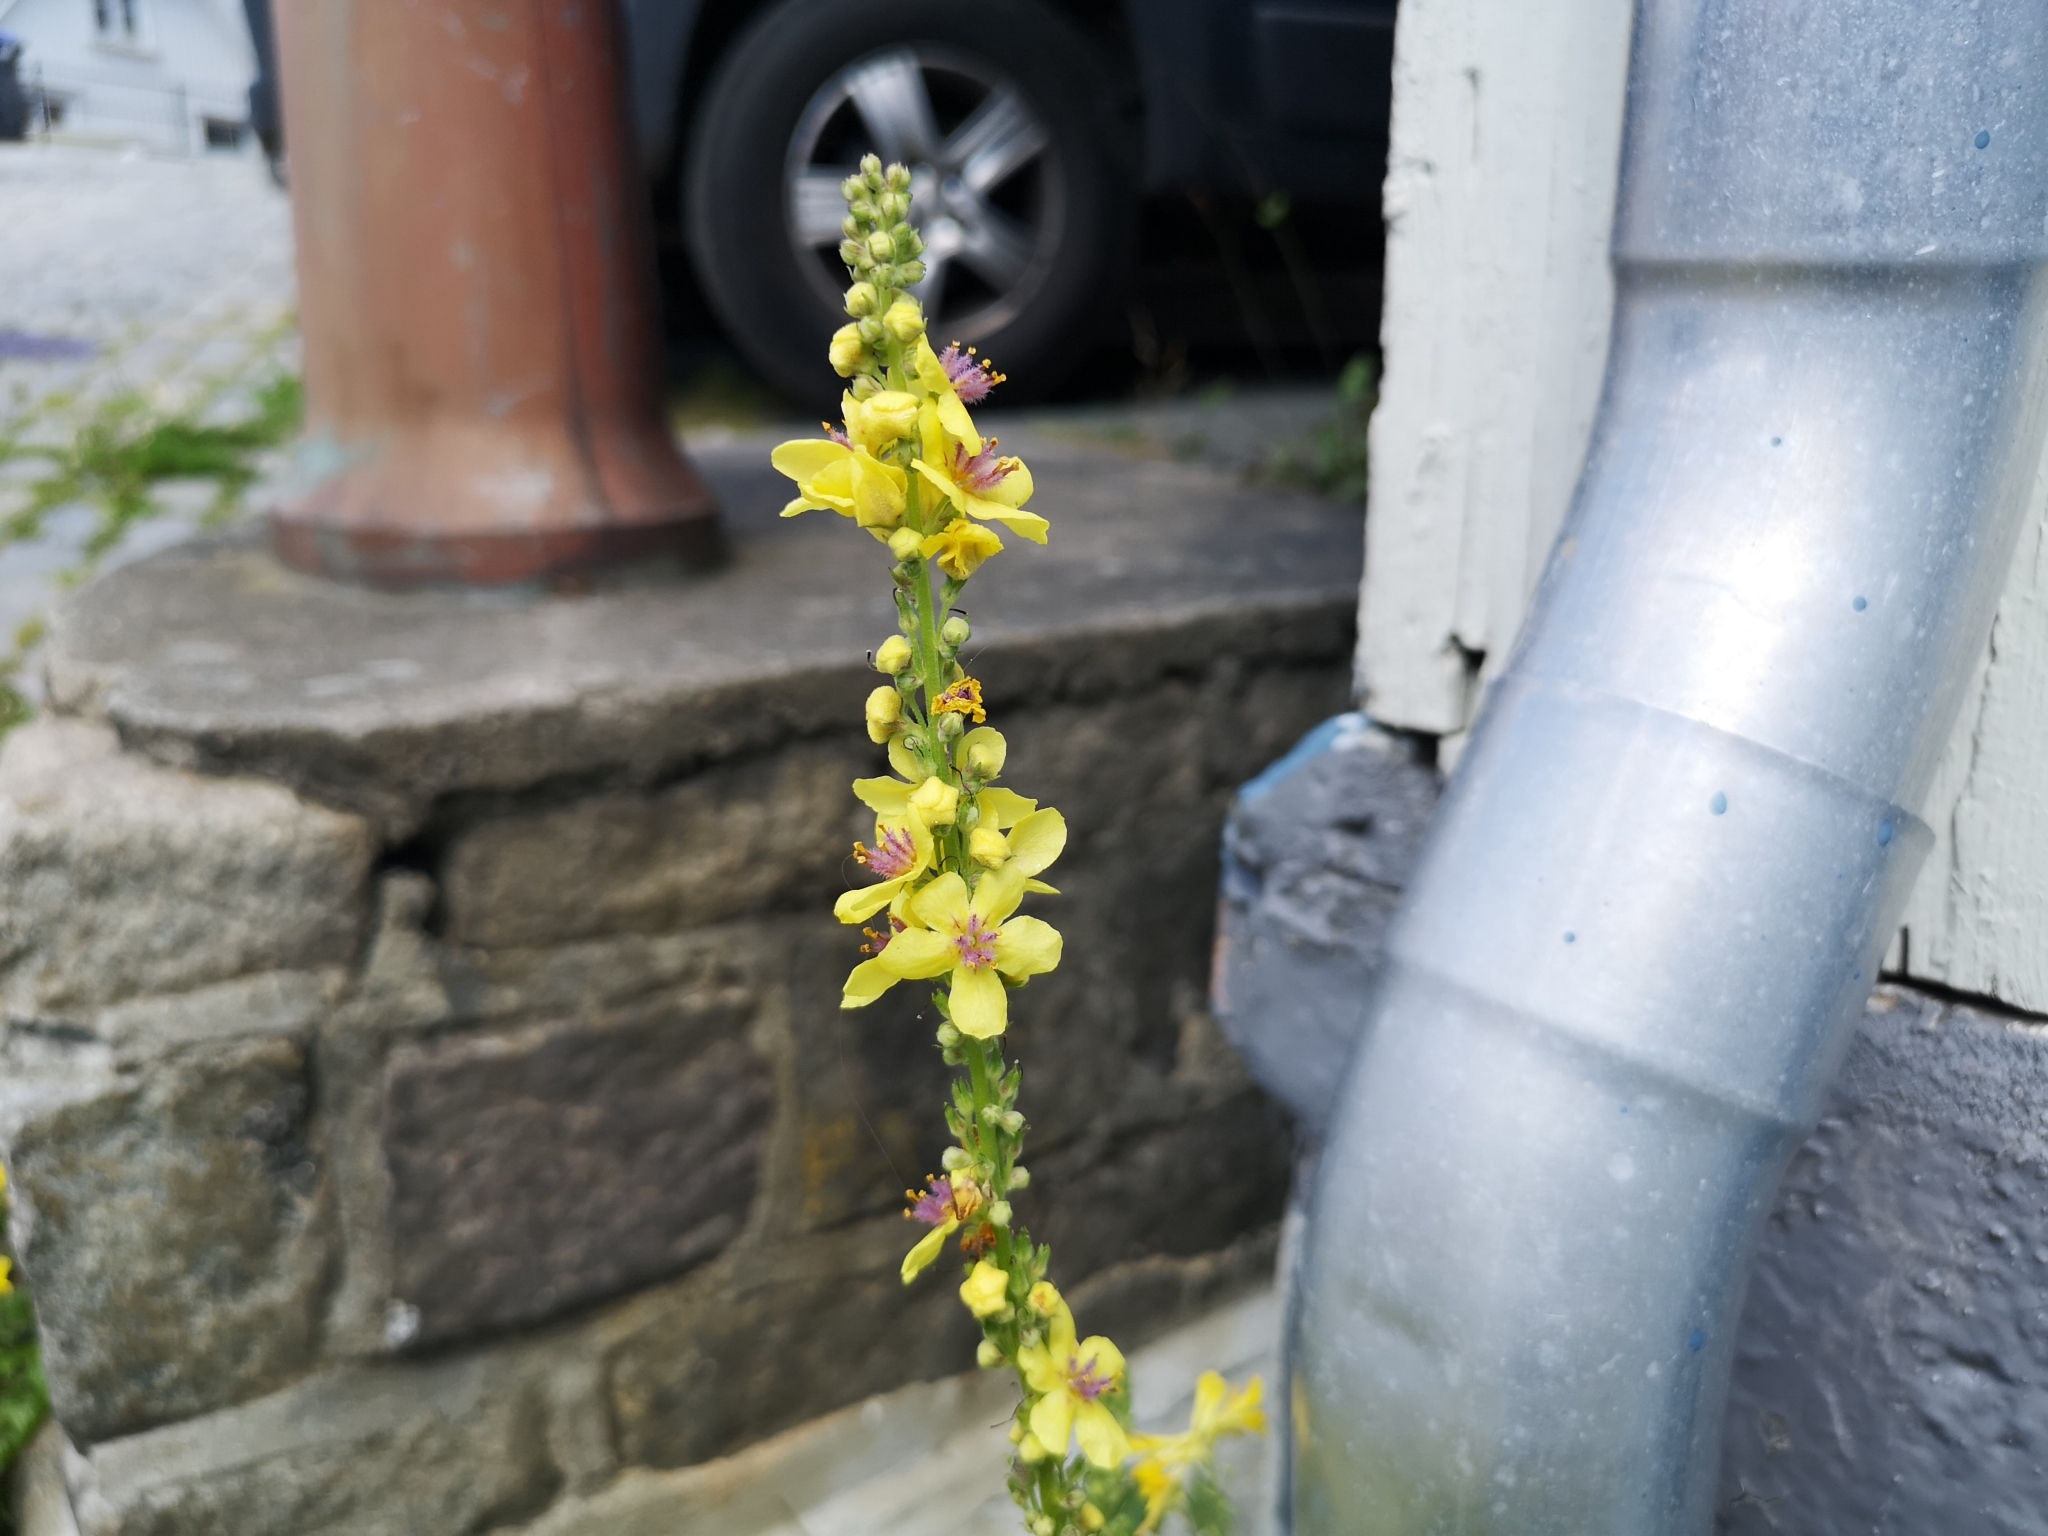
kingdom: Plantae
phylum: Tracheophyta
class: Magnoliopsida
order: Lamiales
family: Scrophulariaceae
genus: Verbascum
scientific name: Verbascum nigrum
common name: Dark mullein
